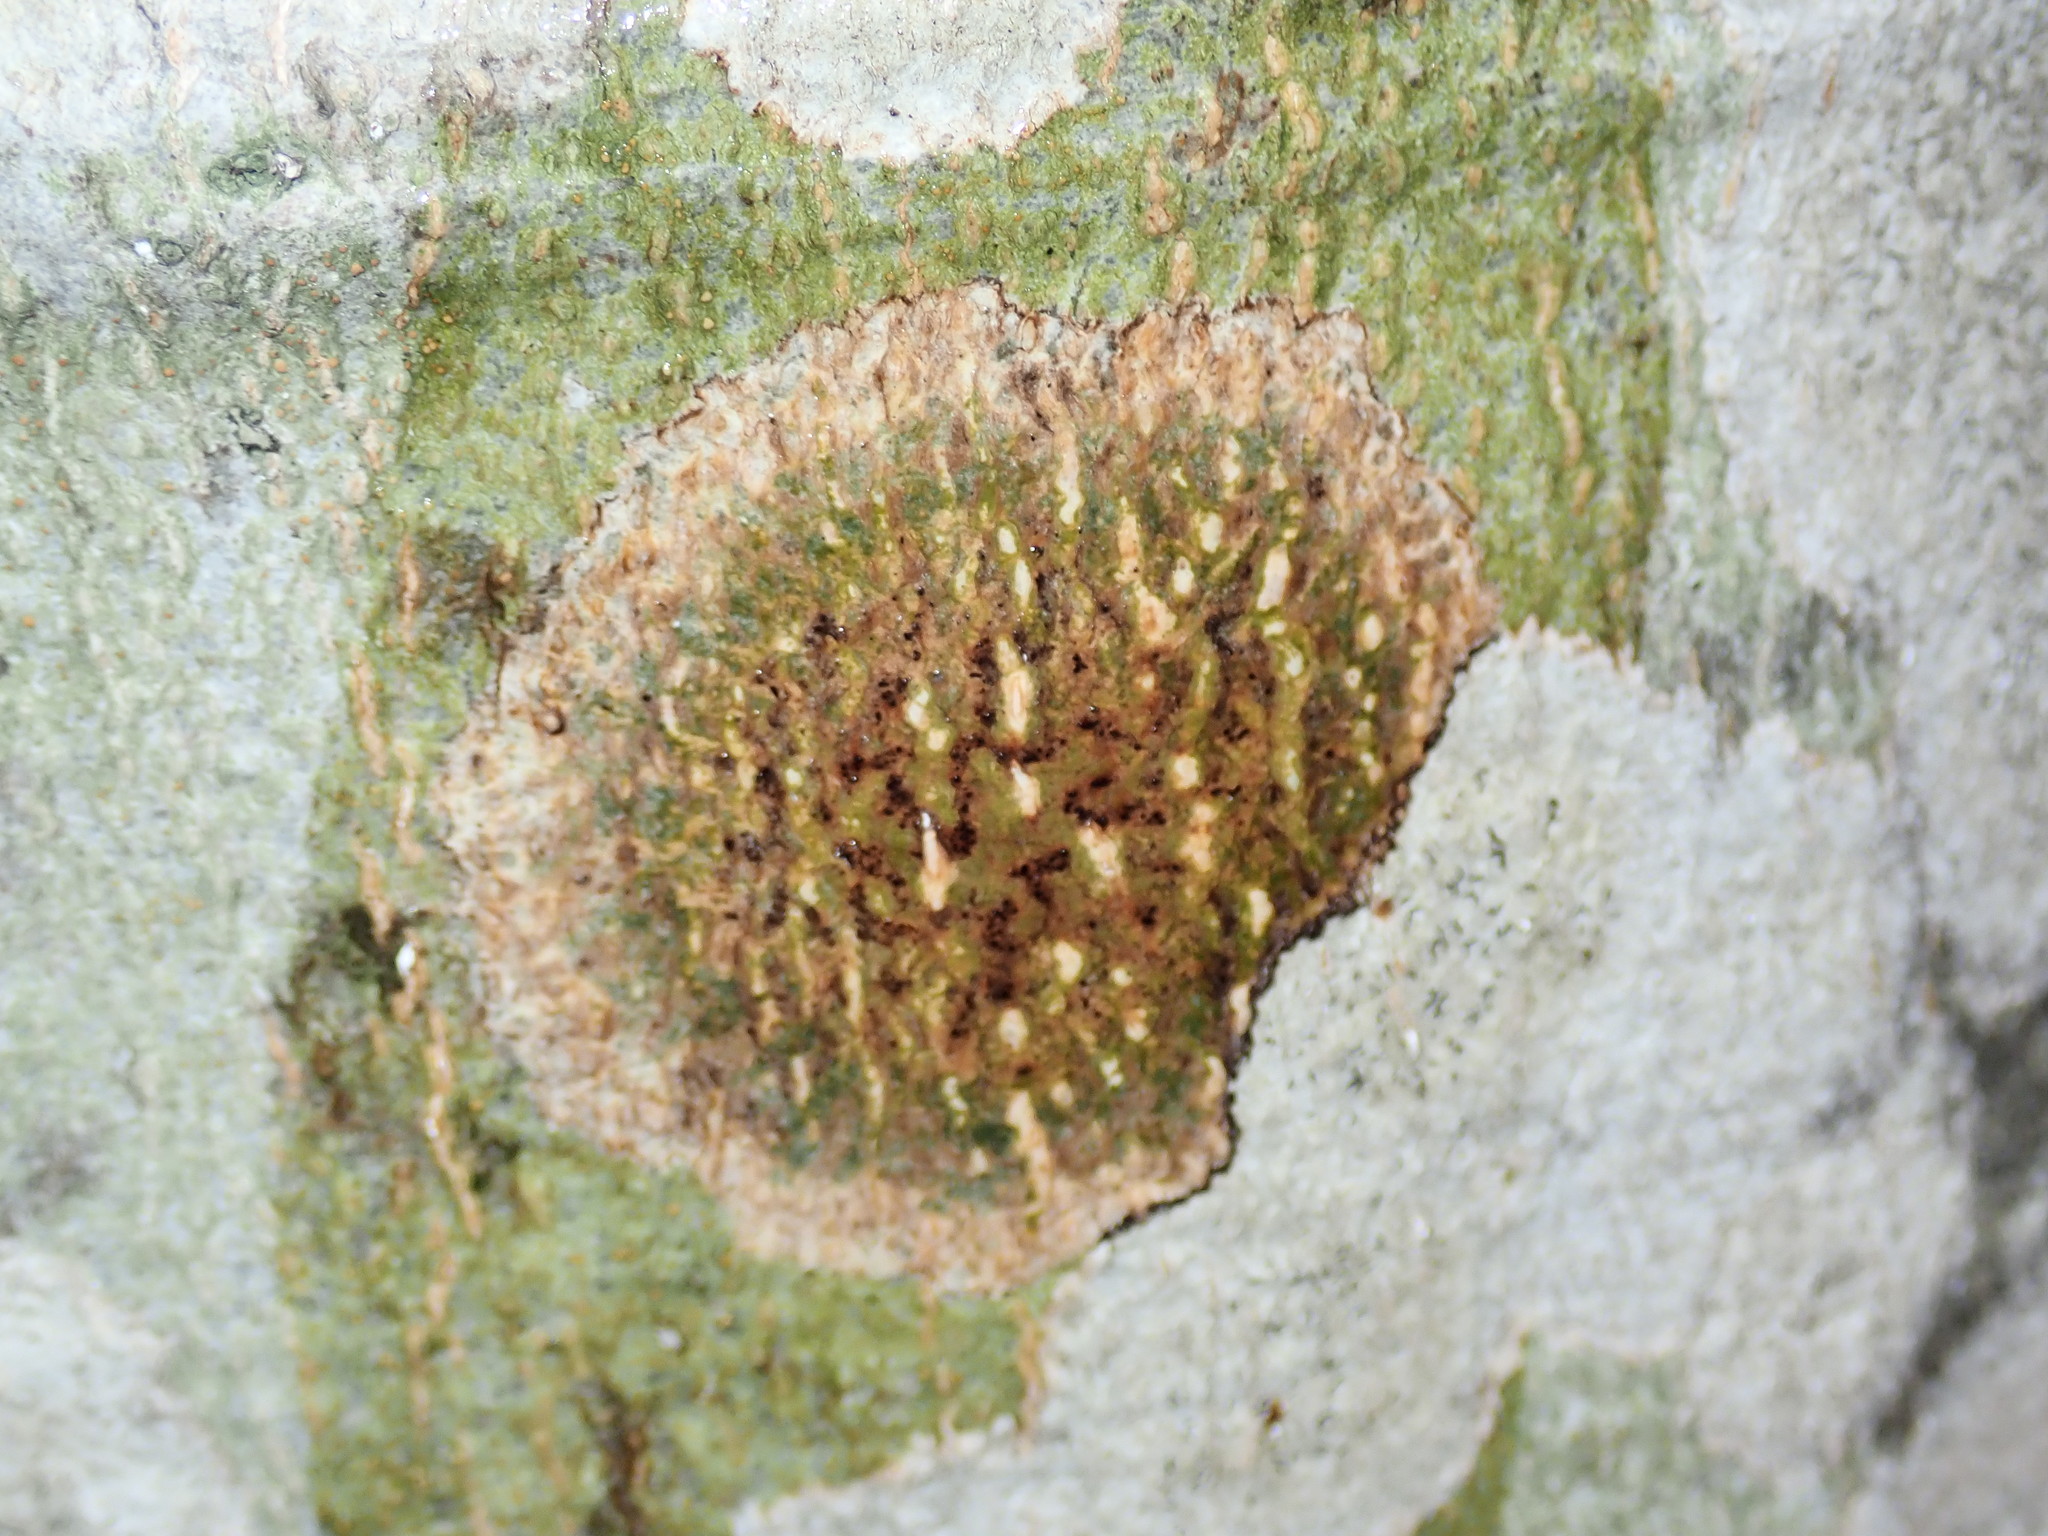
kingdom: Fungi
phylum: Ascomycota
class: Dothideomycetes
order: Trypetheliales
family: Trypetheliaceae
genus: Viridothelium
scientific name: Viridothelium virens
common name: Speckled blister lichen
